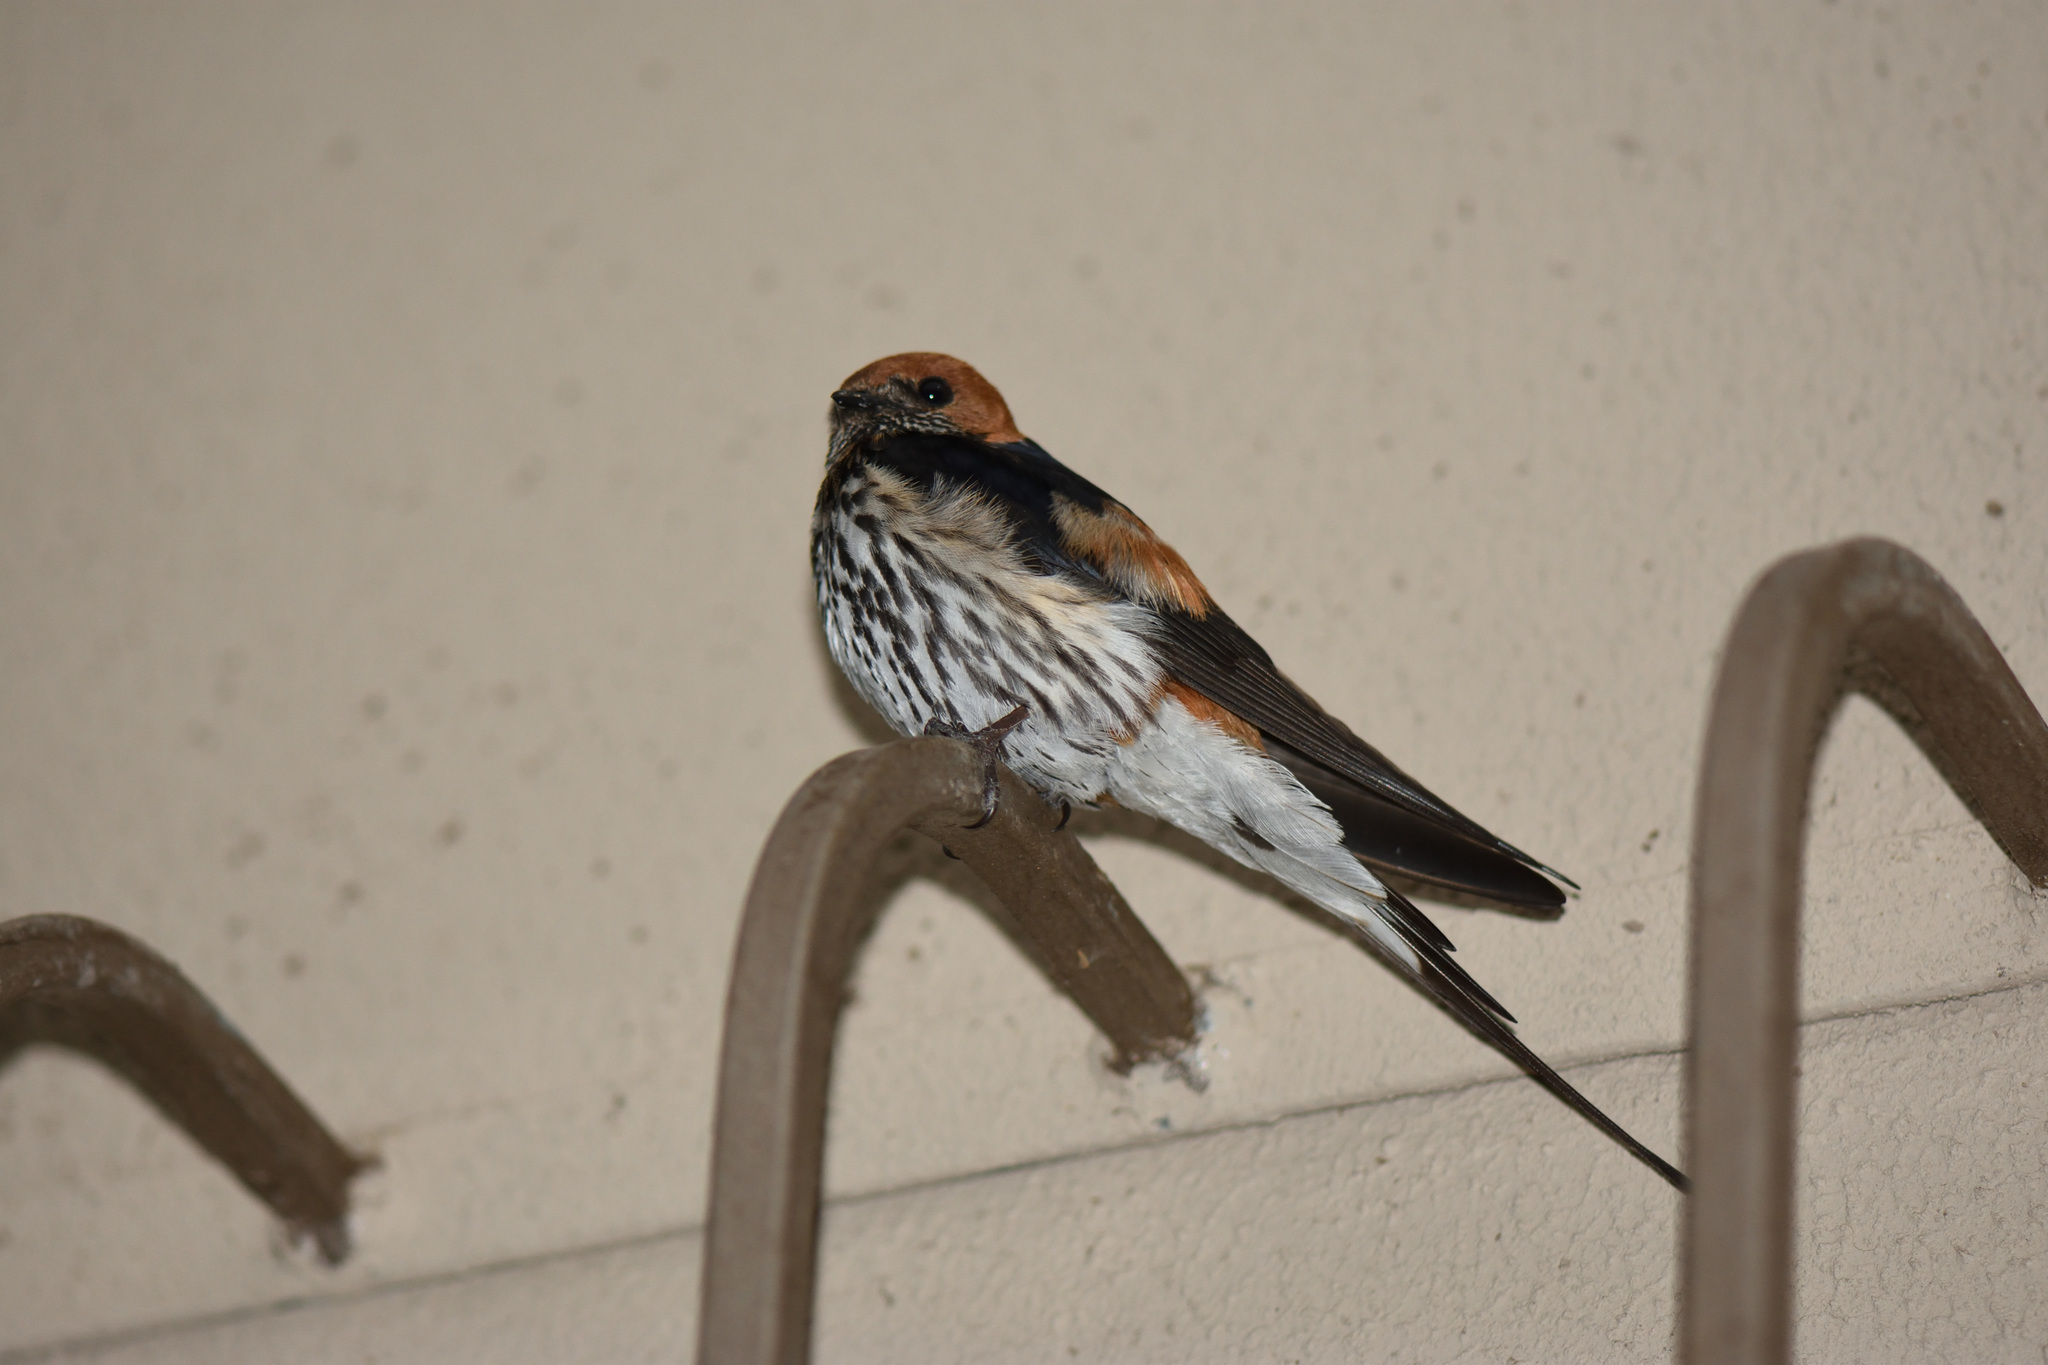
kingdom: Animalia
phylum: Chordata
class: Aves
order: Passeriformes
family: Hirundinidae
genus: Cecropis
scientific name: Cecropis abyssinica
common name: Lesser striped-swallow
